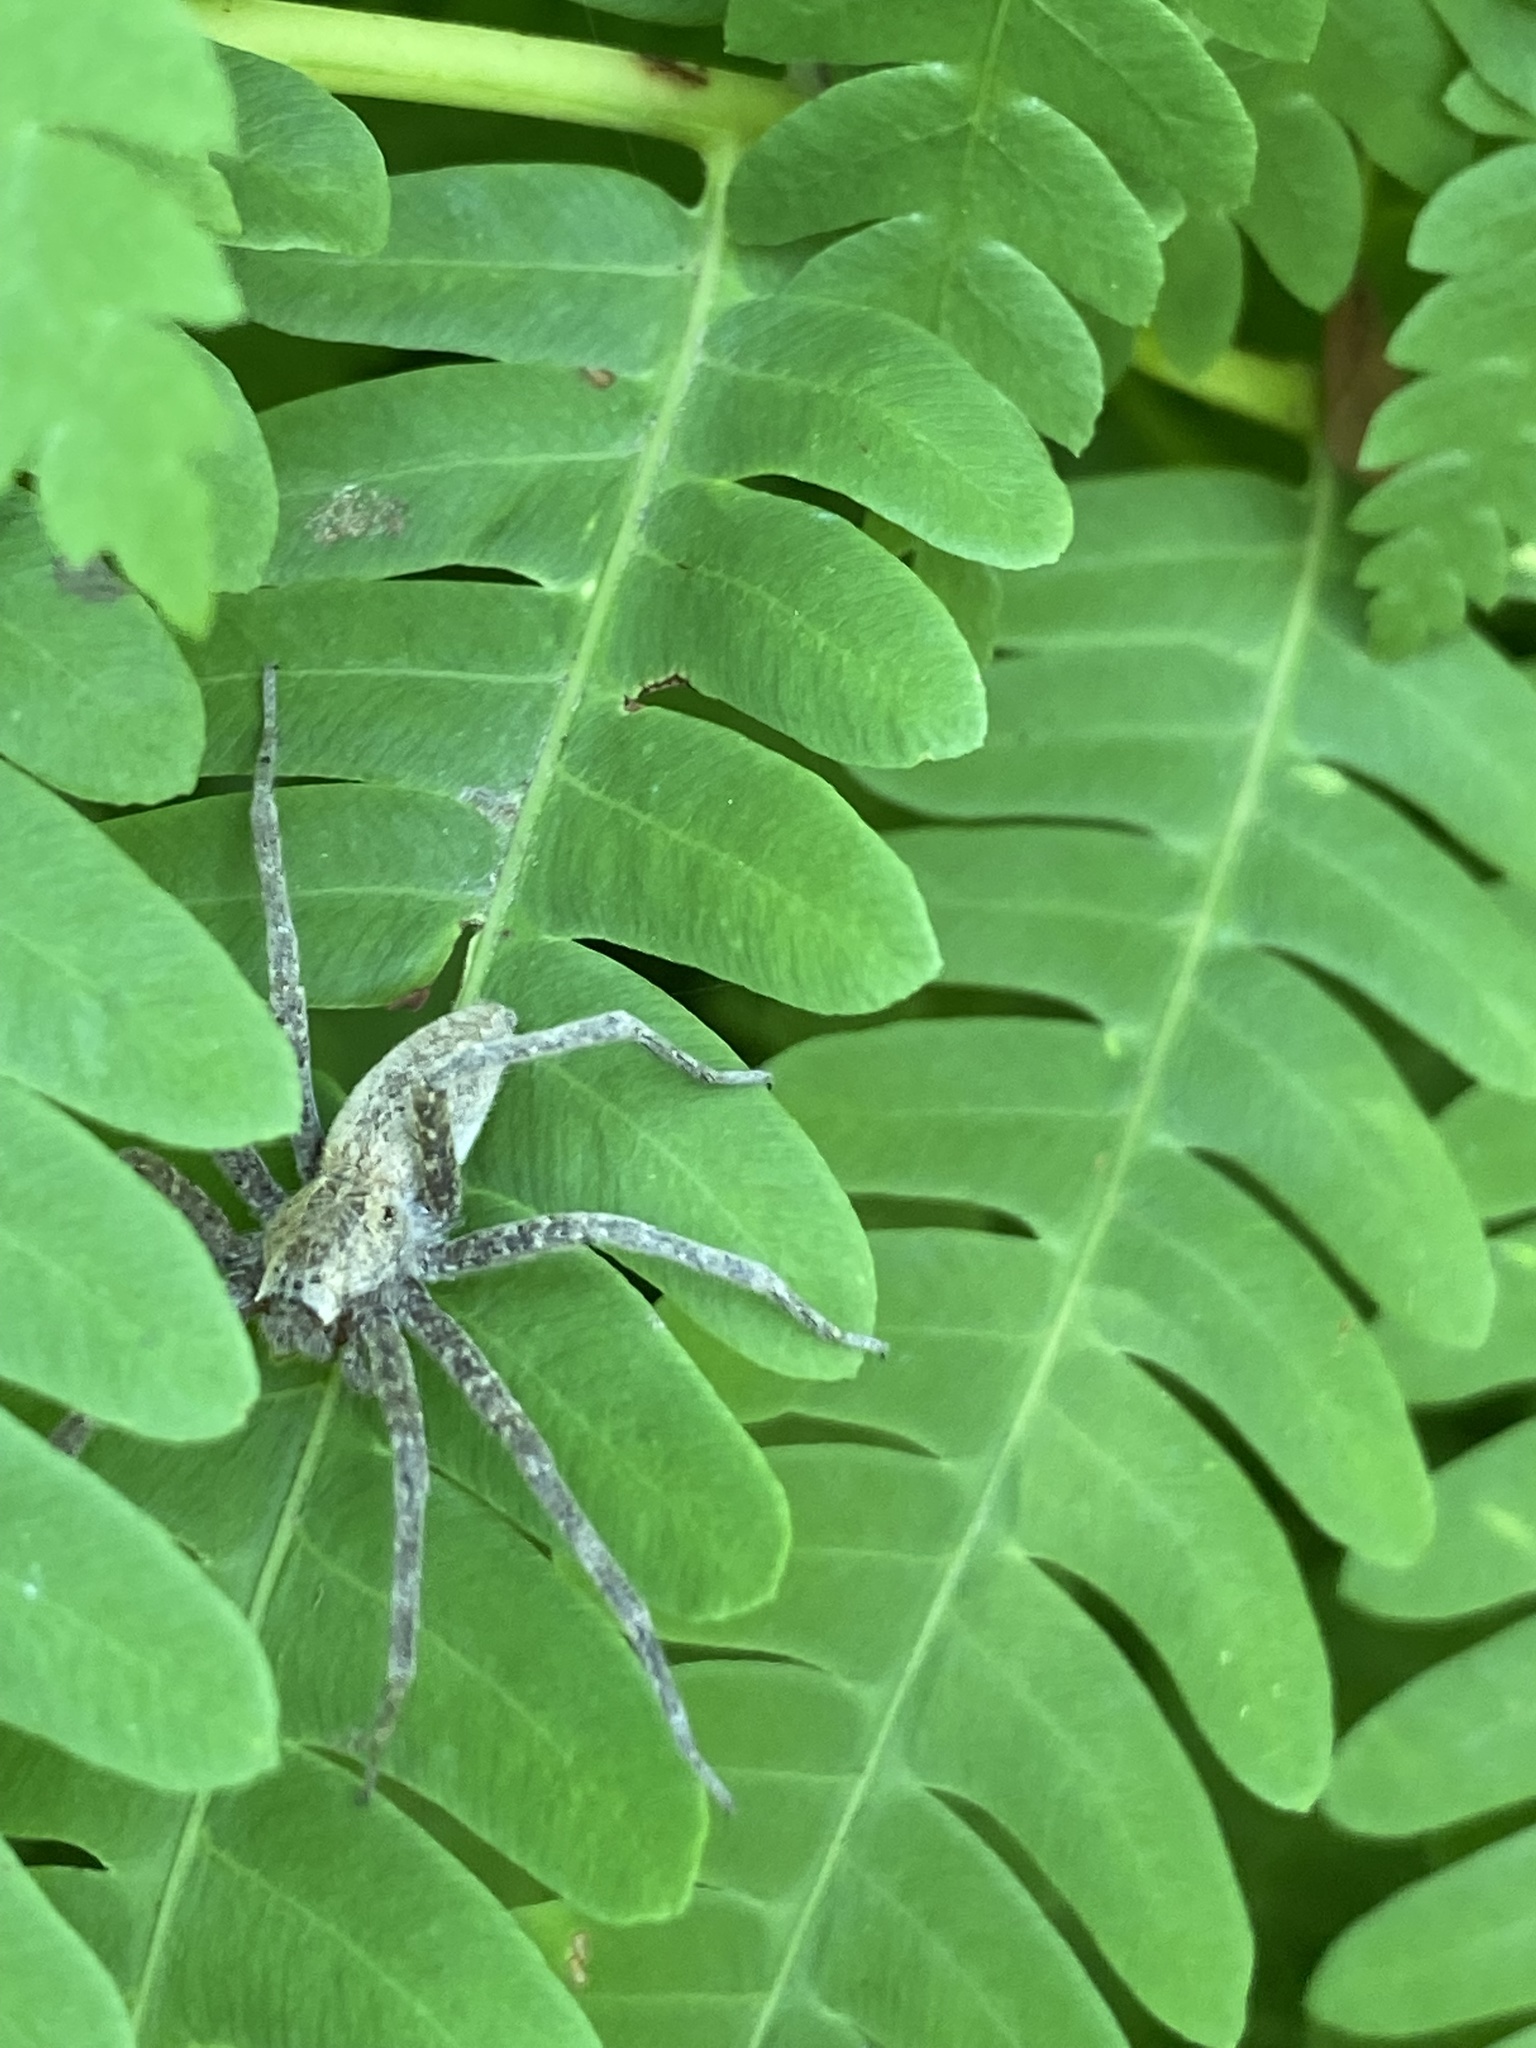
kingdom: Animalia
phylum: Arthropoda
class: Arachnida
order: Araneae
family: Pisauridae
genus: Pisaurina
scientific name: Pisaurina mira
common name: American nursery web spider
